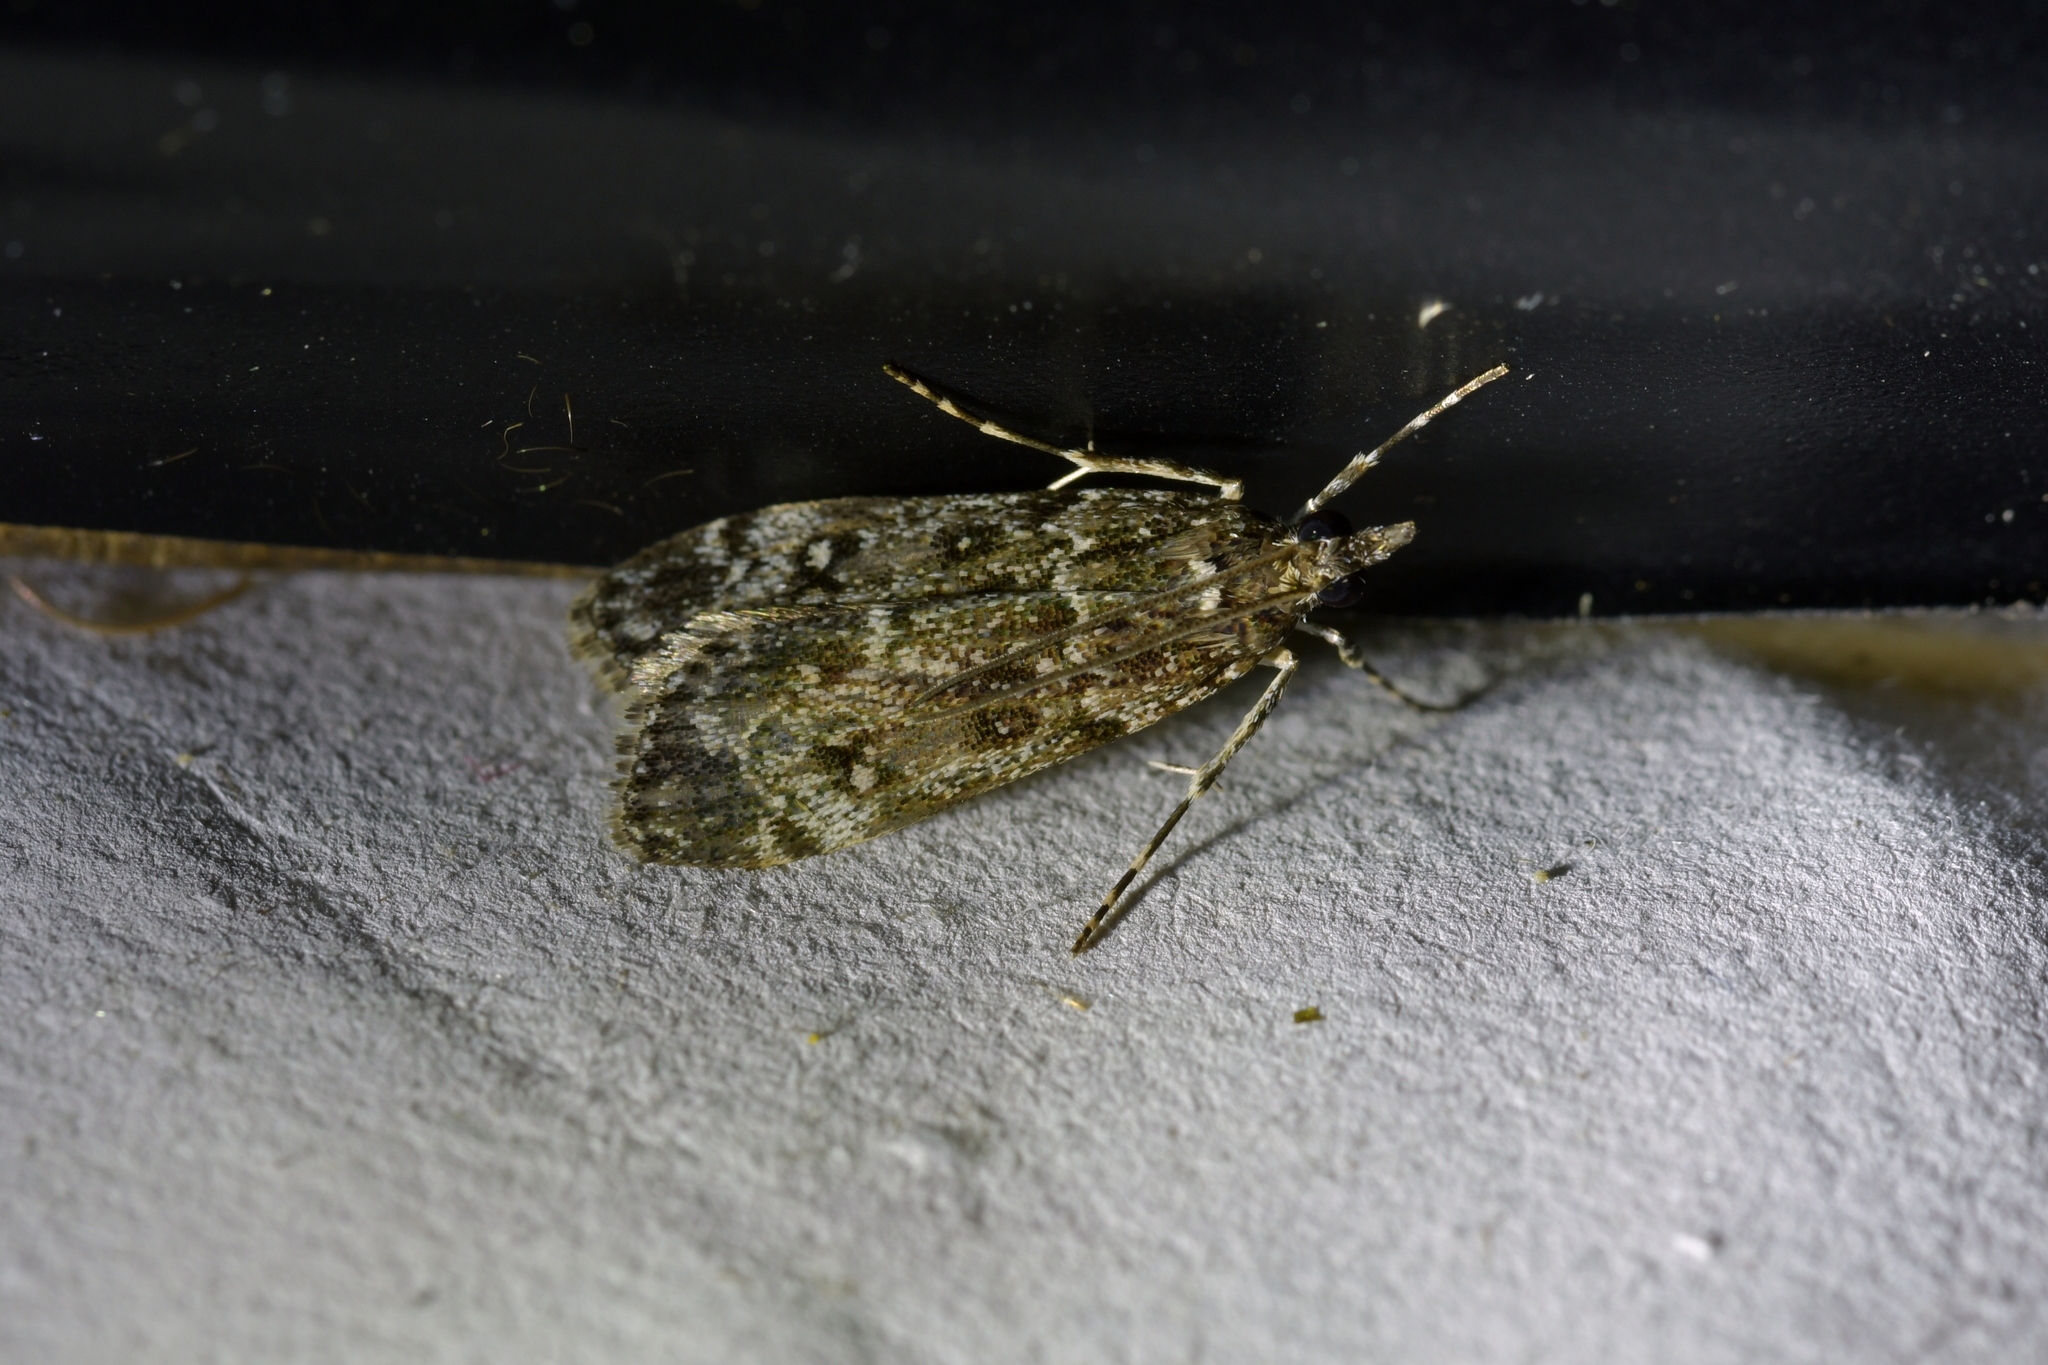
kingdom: Animalia
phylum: Arthropoda
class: Insecta
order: Lepidoptera
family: Crambidae
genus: Eudonia
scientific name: Eudonia philerga
